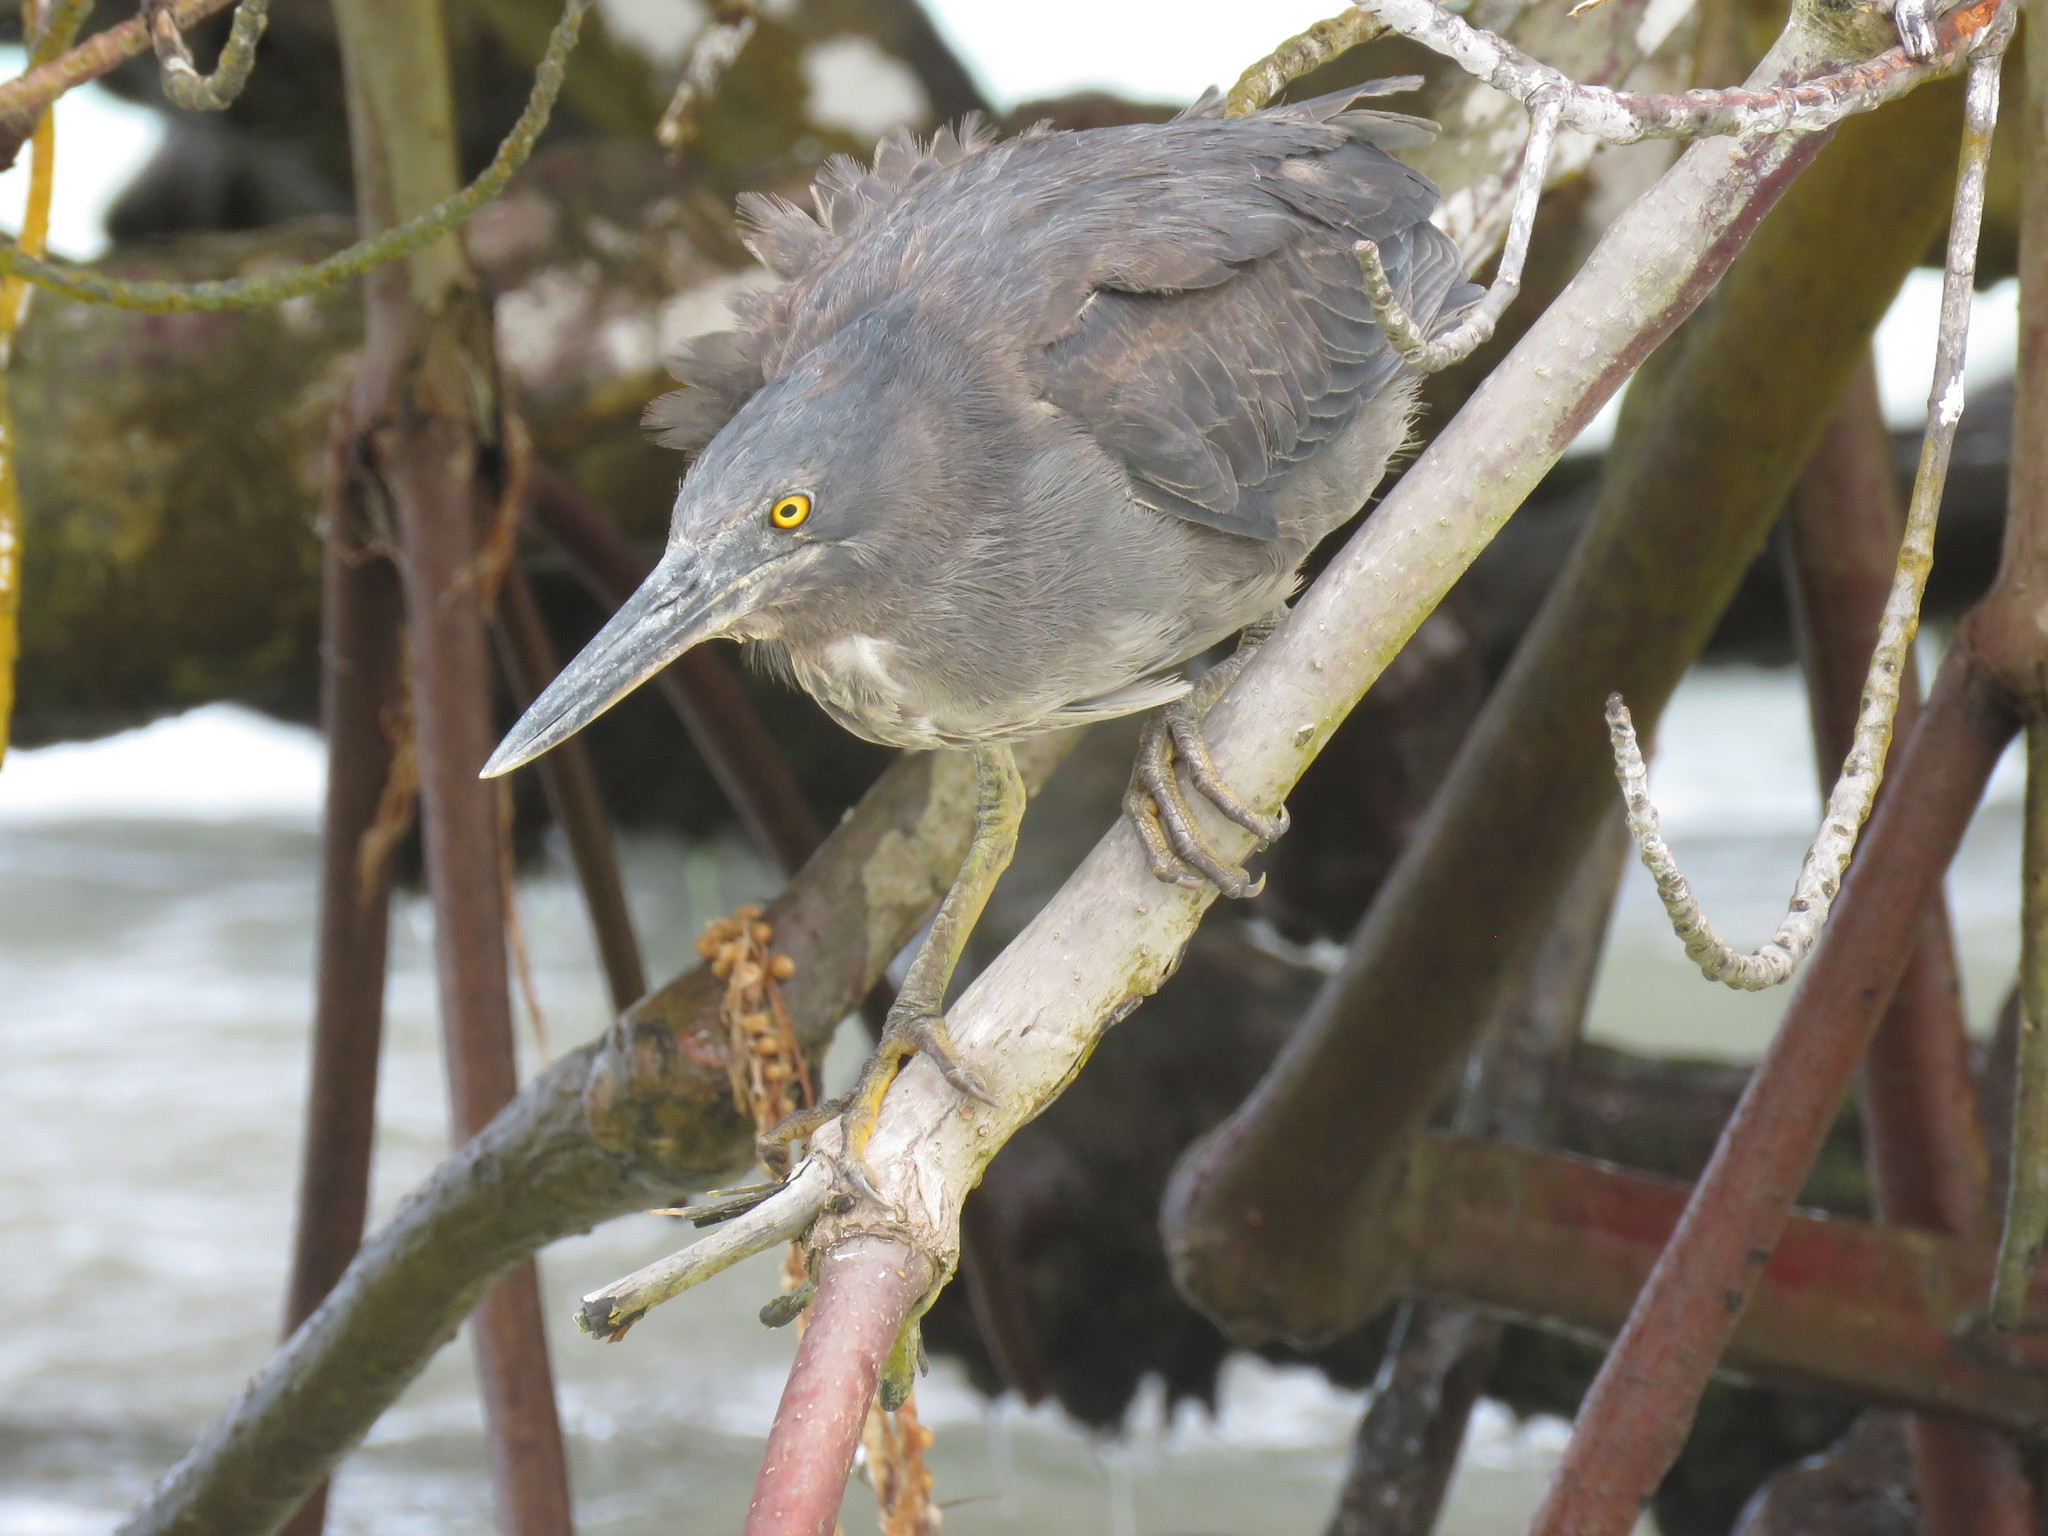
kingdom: Animalia
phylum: Chordata
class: Aves
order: Pelecaniformes
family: Ardeidae
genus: Butorides
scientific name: Butorides striata
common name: Striated heron
